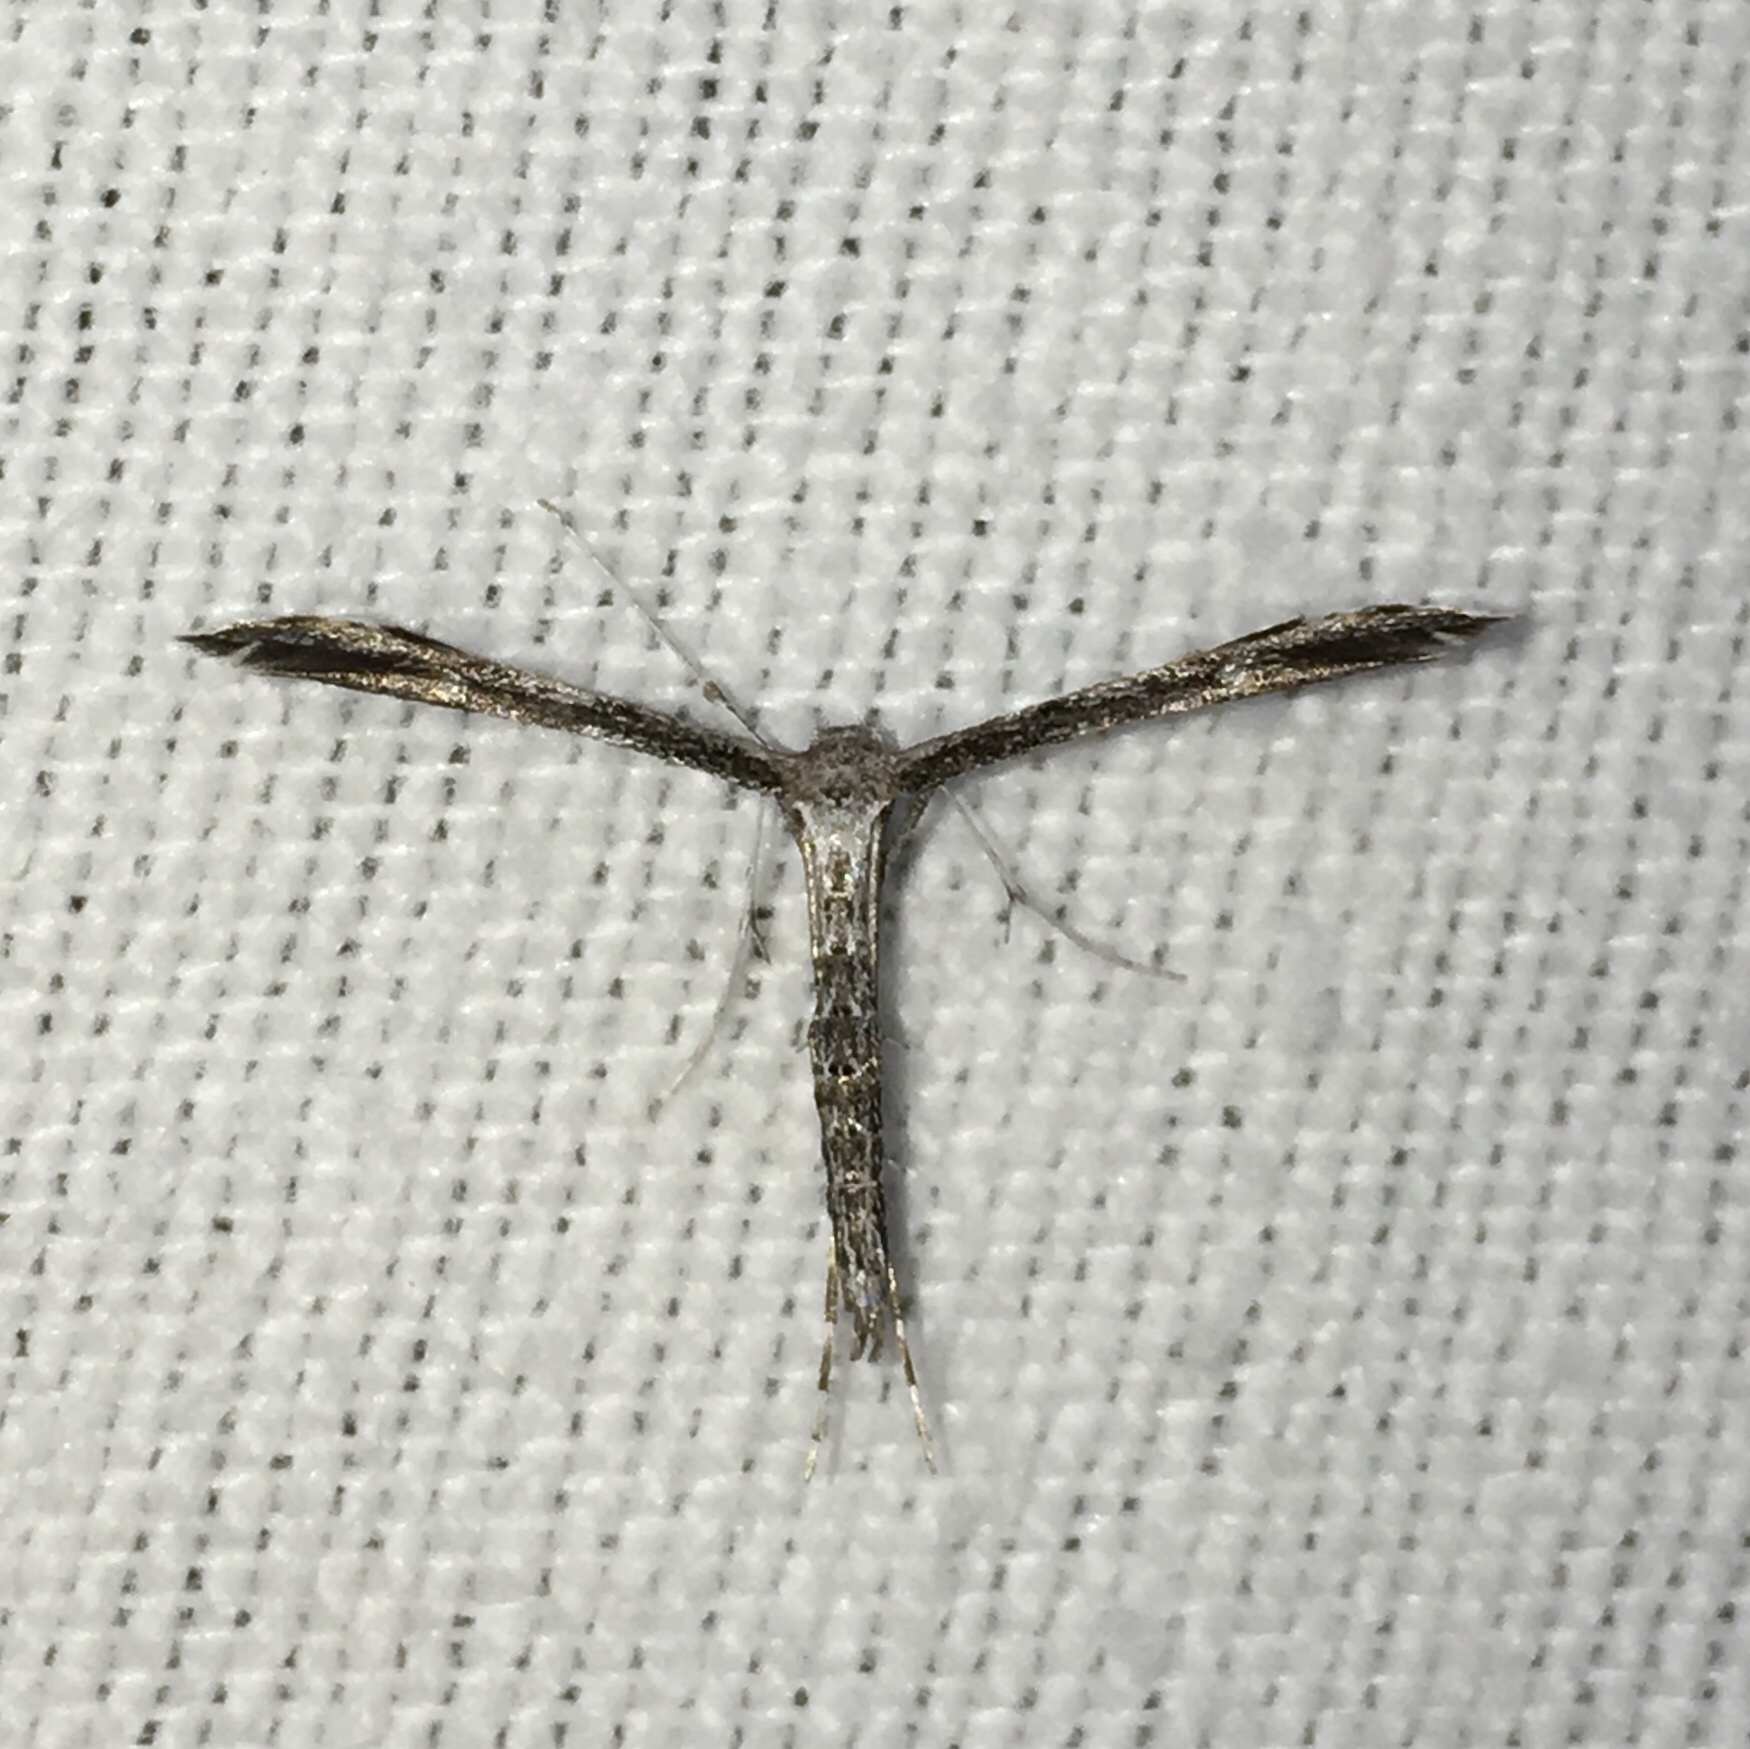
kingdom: Animalia
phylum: Arthropoda
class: Insecta
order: Lepidoptera
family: Pterophoridae
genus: Hellinsia
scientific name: Hellinsia inquinatus
